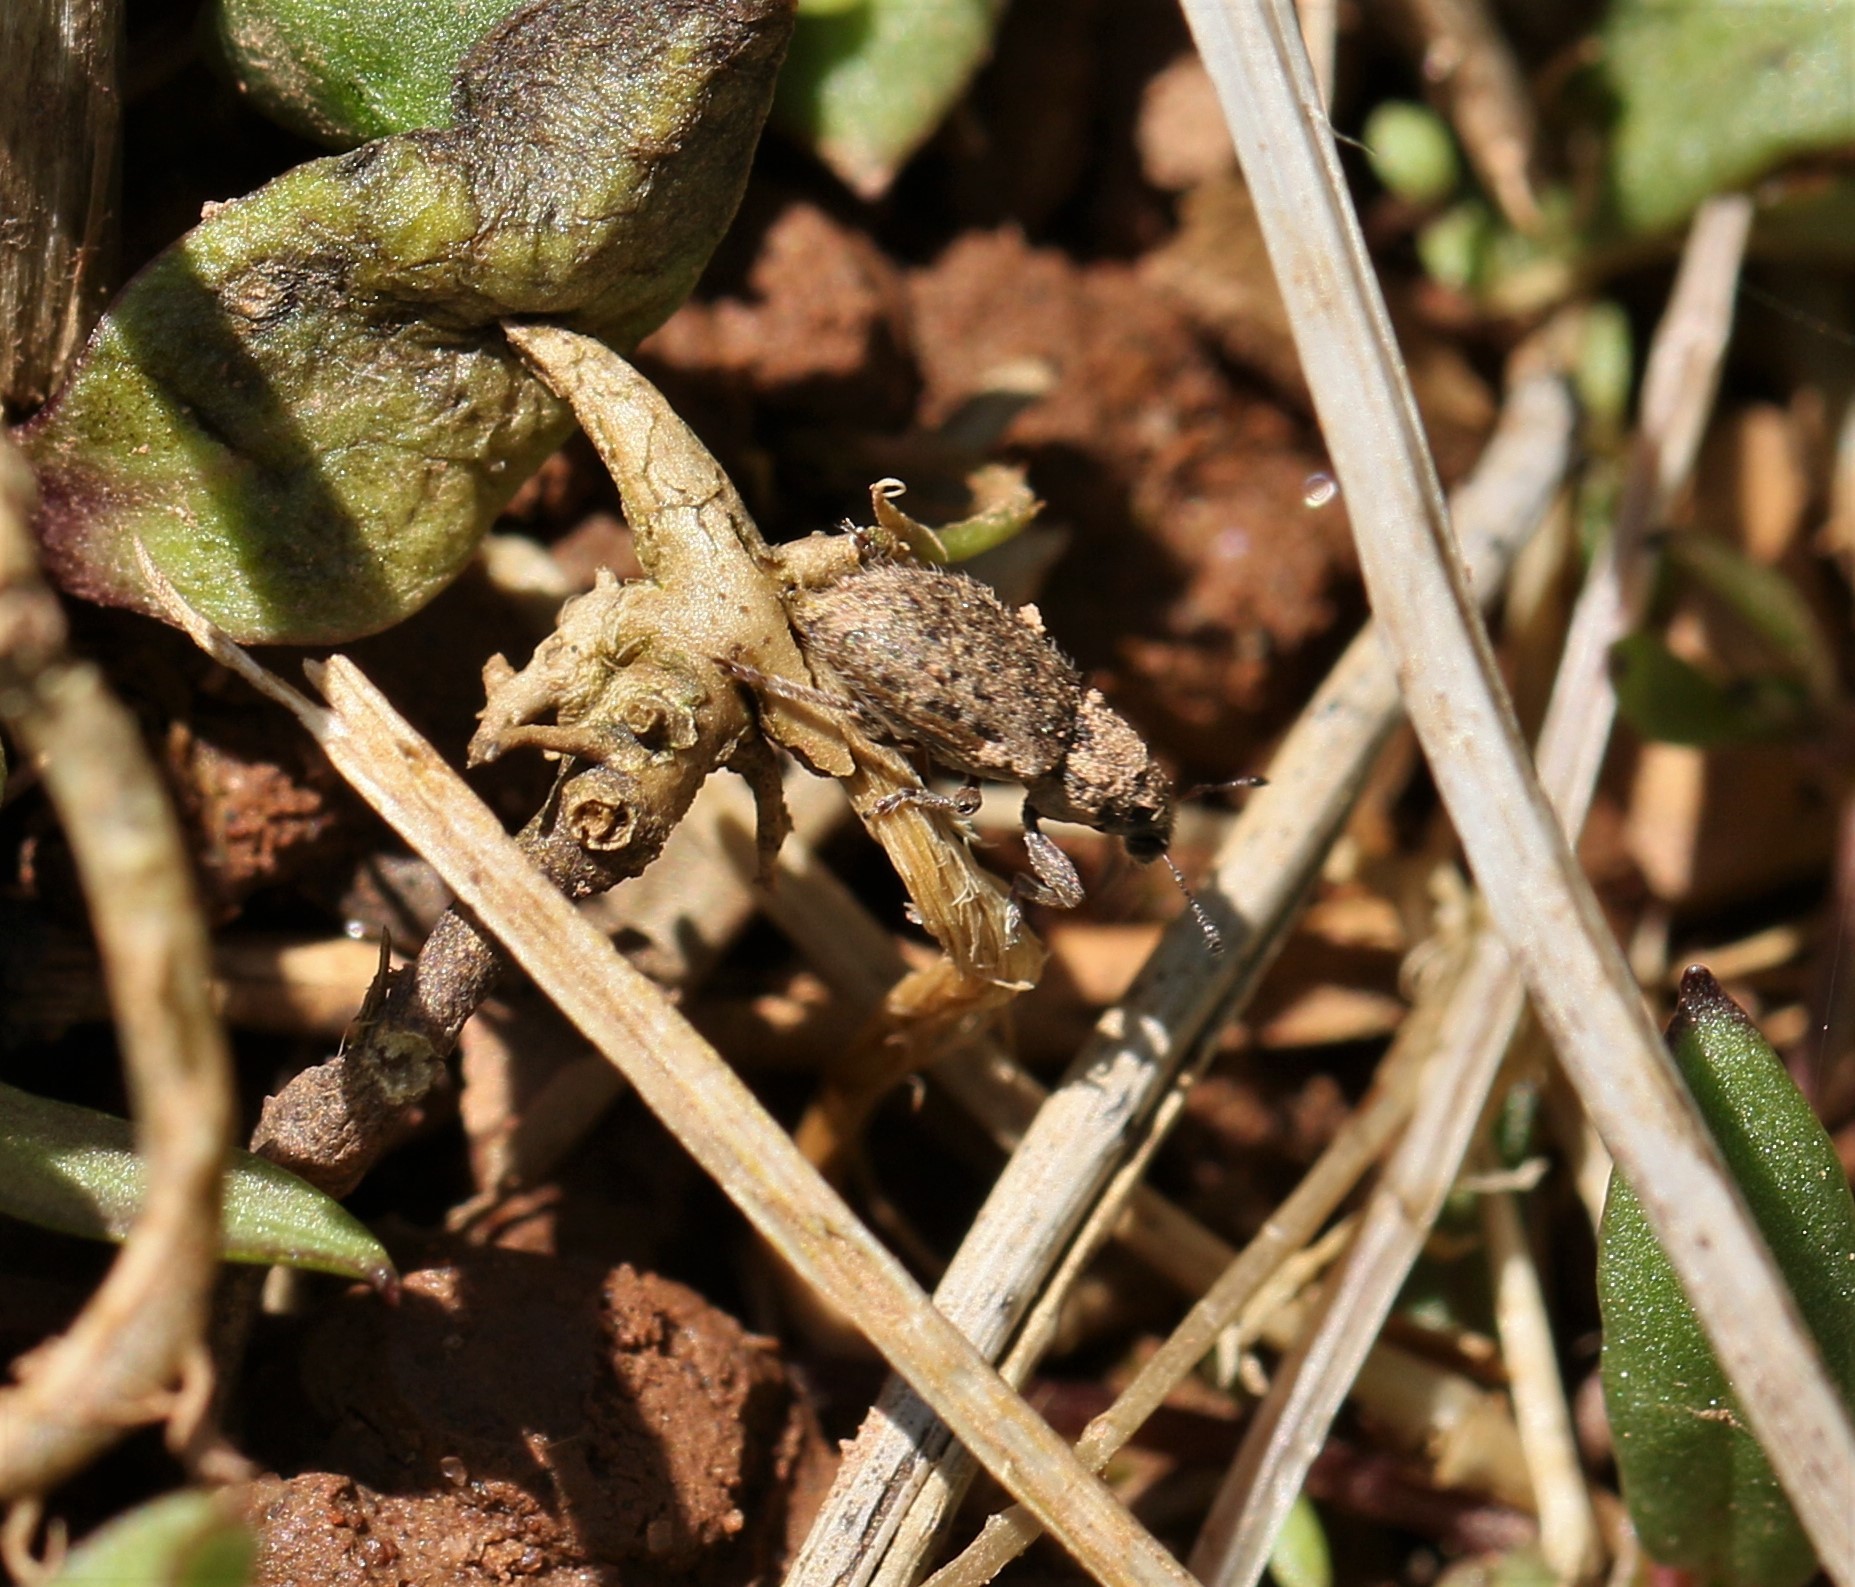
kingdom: Animalia
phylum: Arthropoda
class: Insecta
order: Coleoptera
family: Curculionidae
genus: Sitona
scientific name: Sitona hispidulus
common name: Clover weevil
